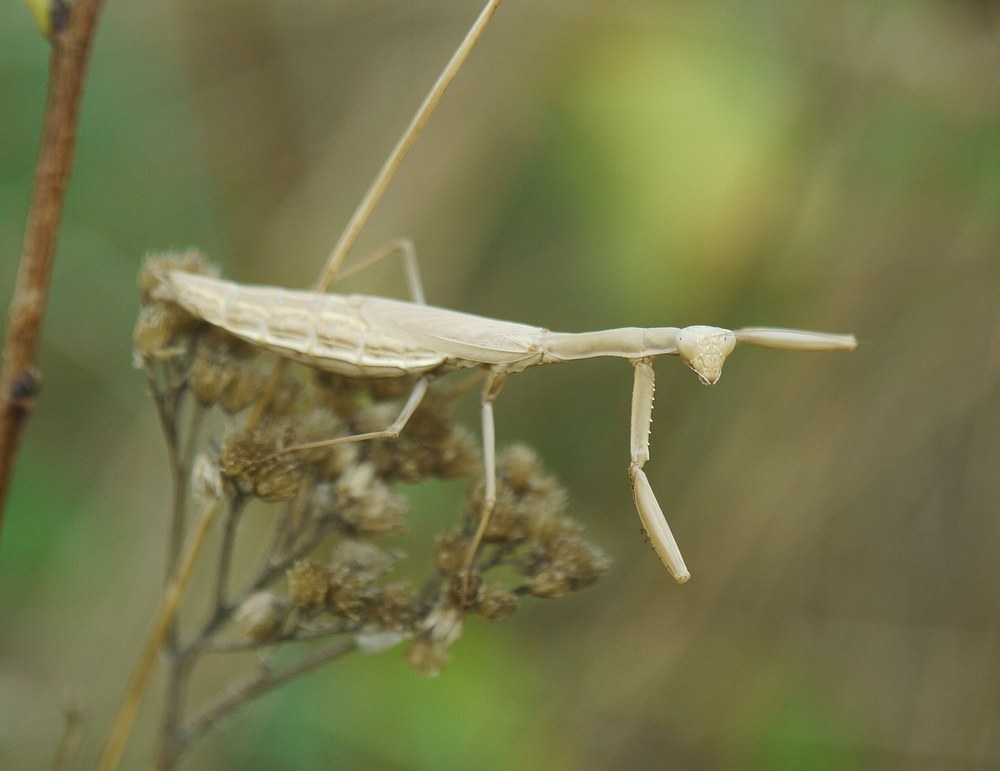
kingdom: Animalia
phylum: Arthropoda
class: Insecta
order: Mantodea
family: Eremiaphilidae
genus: Iris
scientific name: Iris polystictica
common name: Dot-winged mantis
